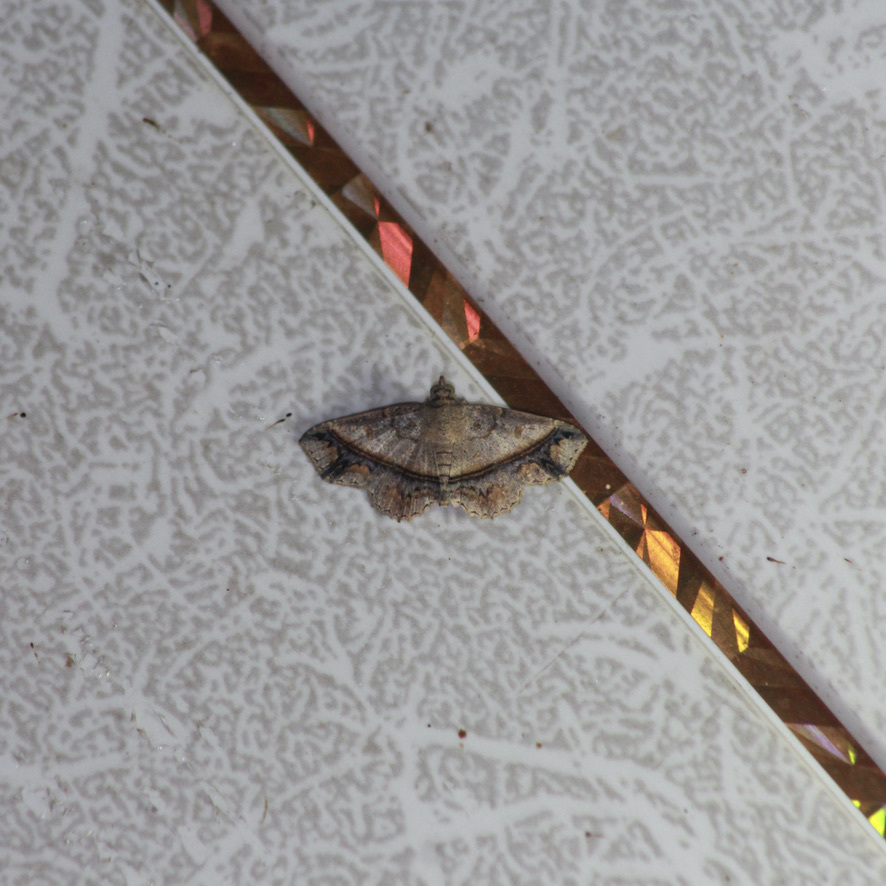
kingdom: Animalia
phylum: Arthropoda
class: Insecta
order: Lepidoptera
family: Erebidae
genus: Antiblemma
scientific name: Antiblemma acclinalis
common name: Moth
